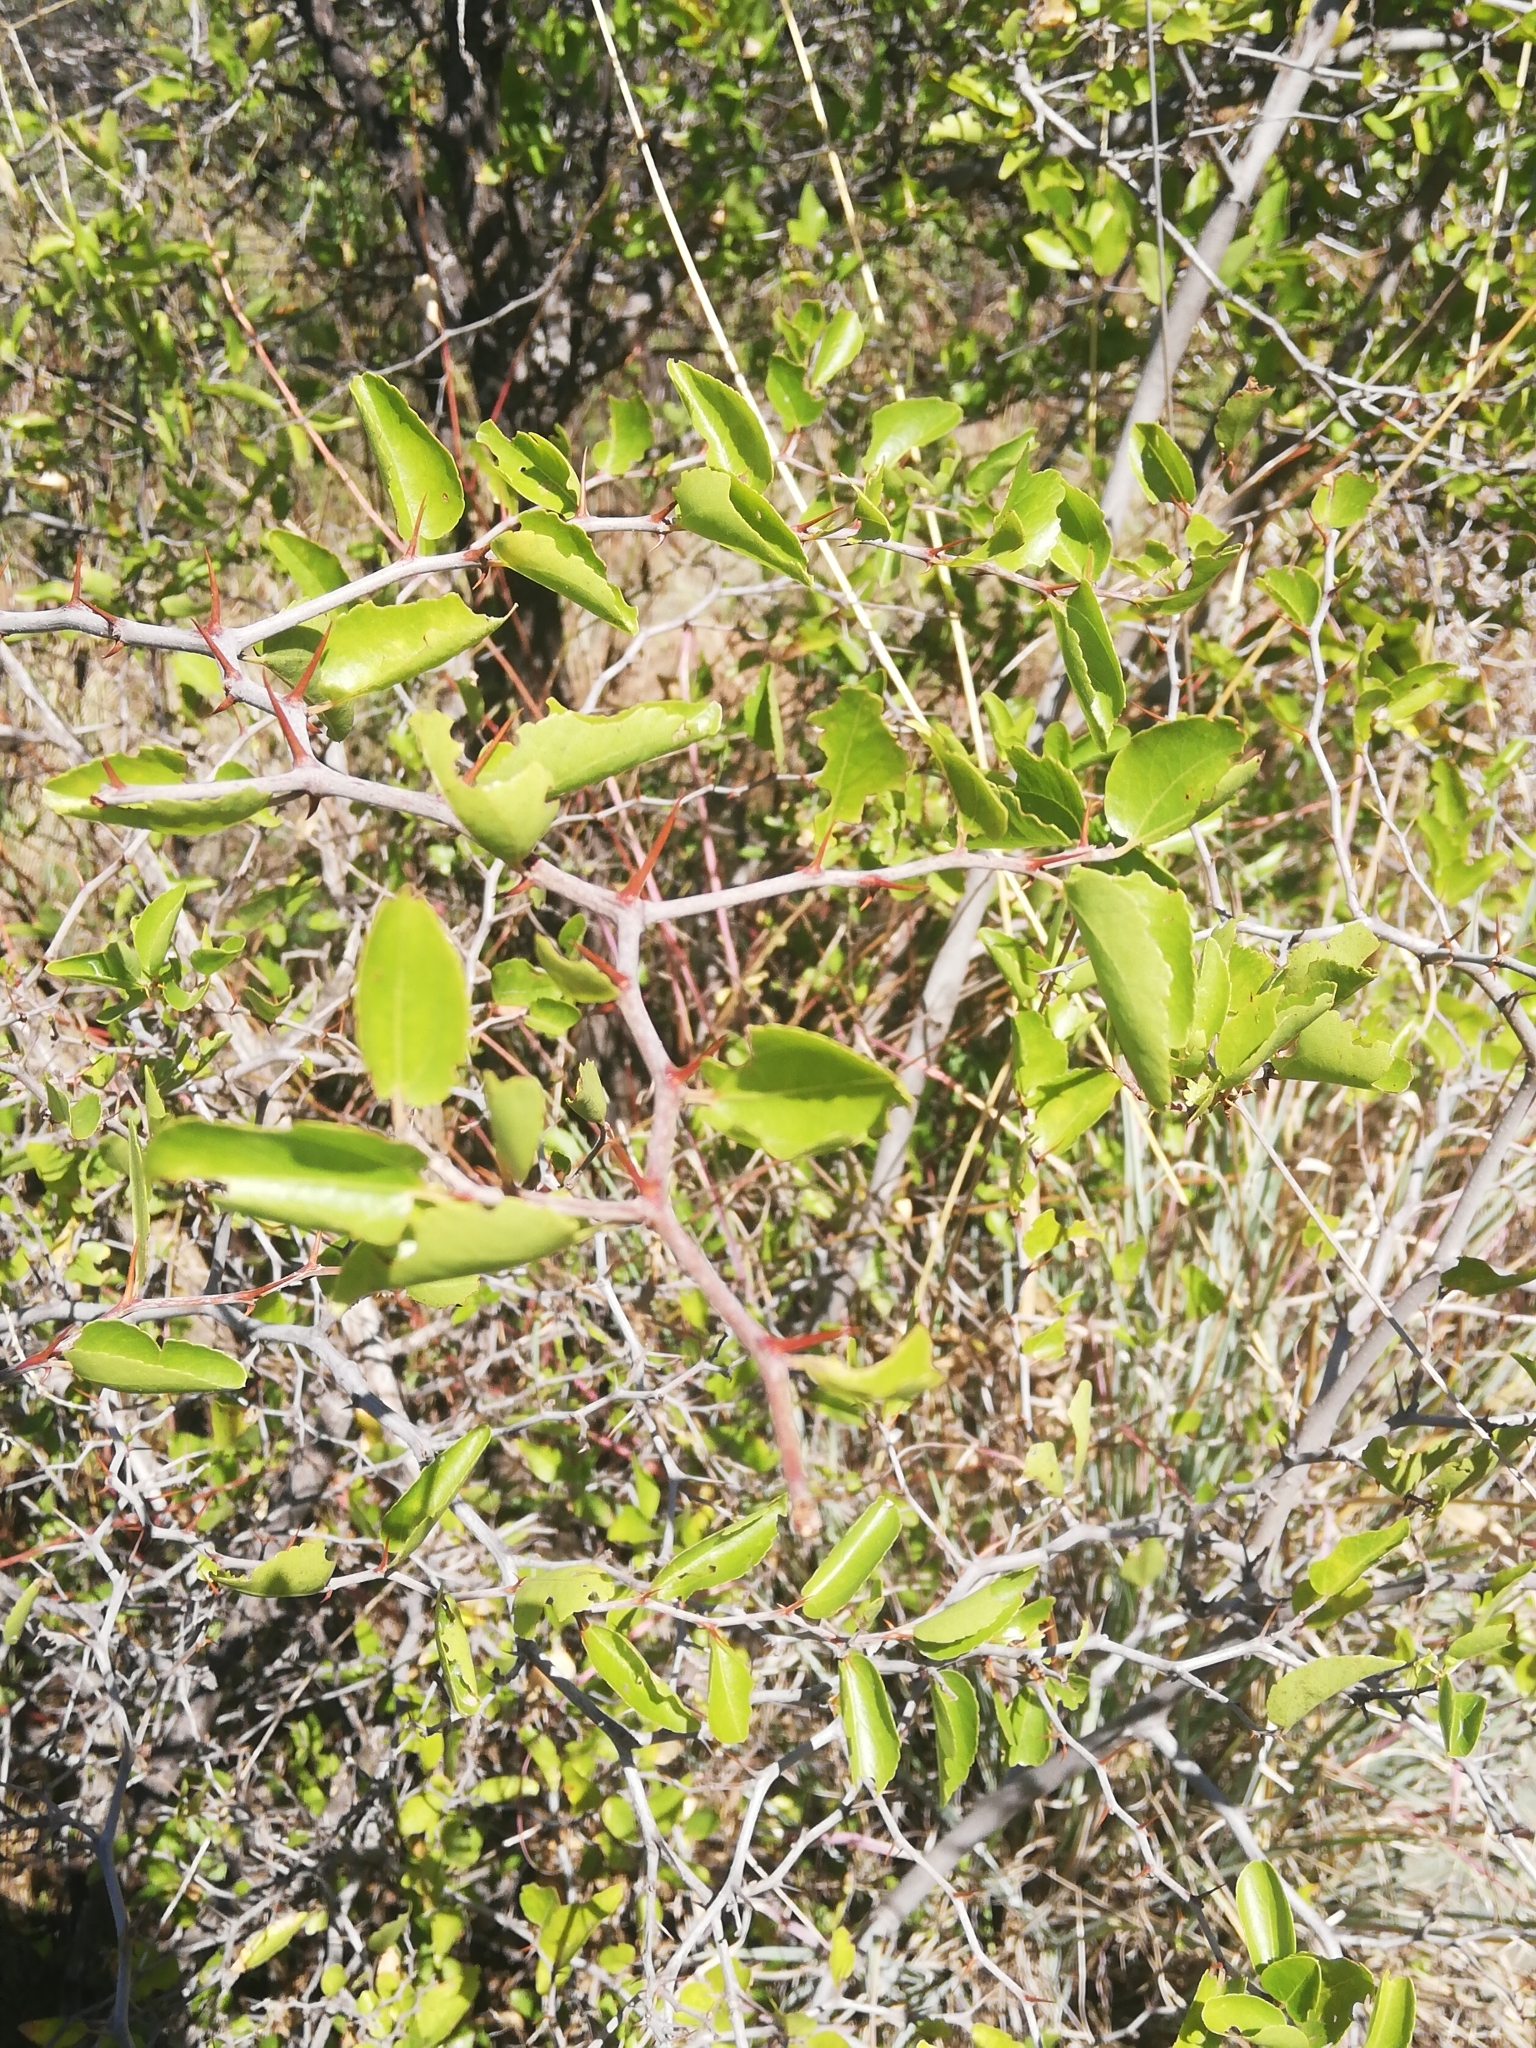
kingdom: Plantae
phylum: Tracheophyta
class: Magnoliopsida
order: Rosales
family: Rhamnaceae
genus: Ziziphus
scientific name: Ziziphus mucronata
